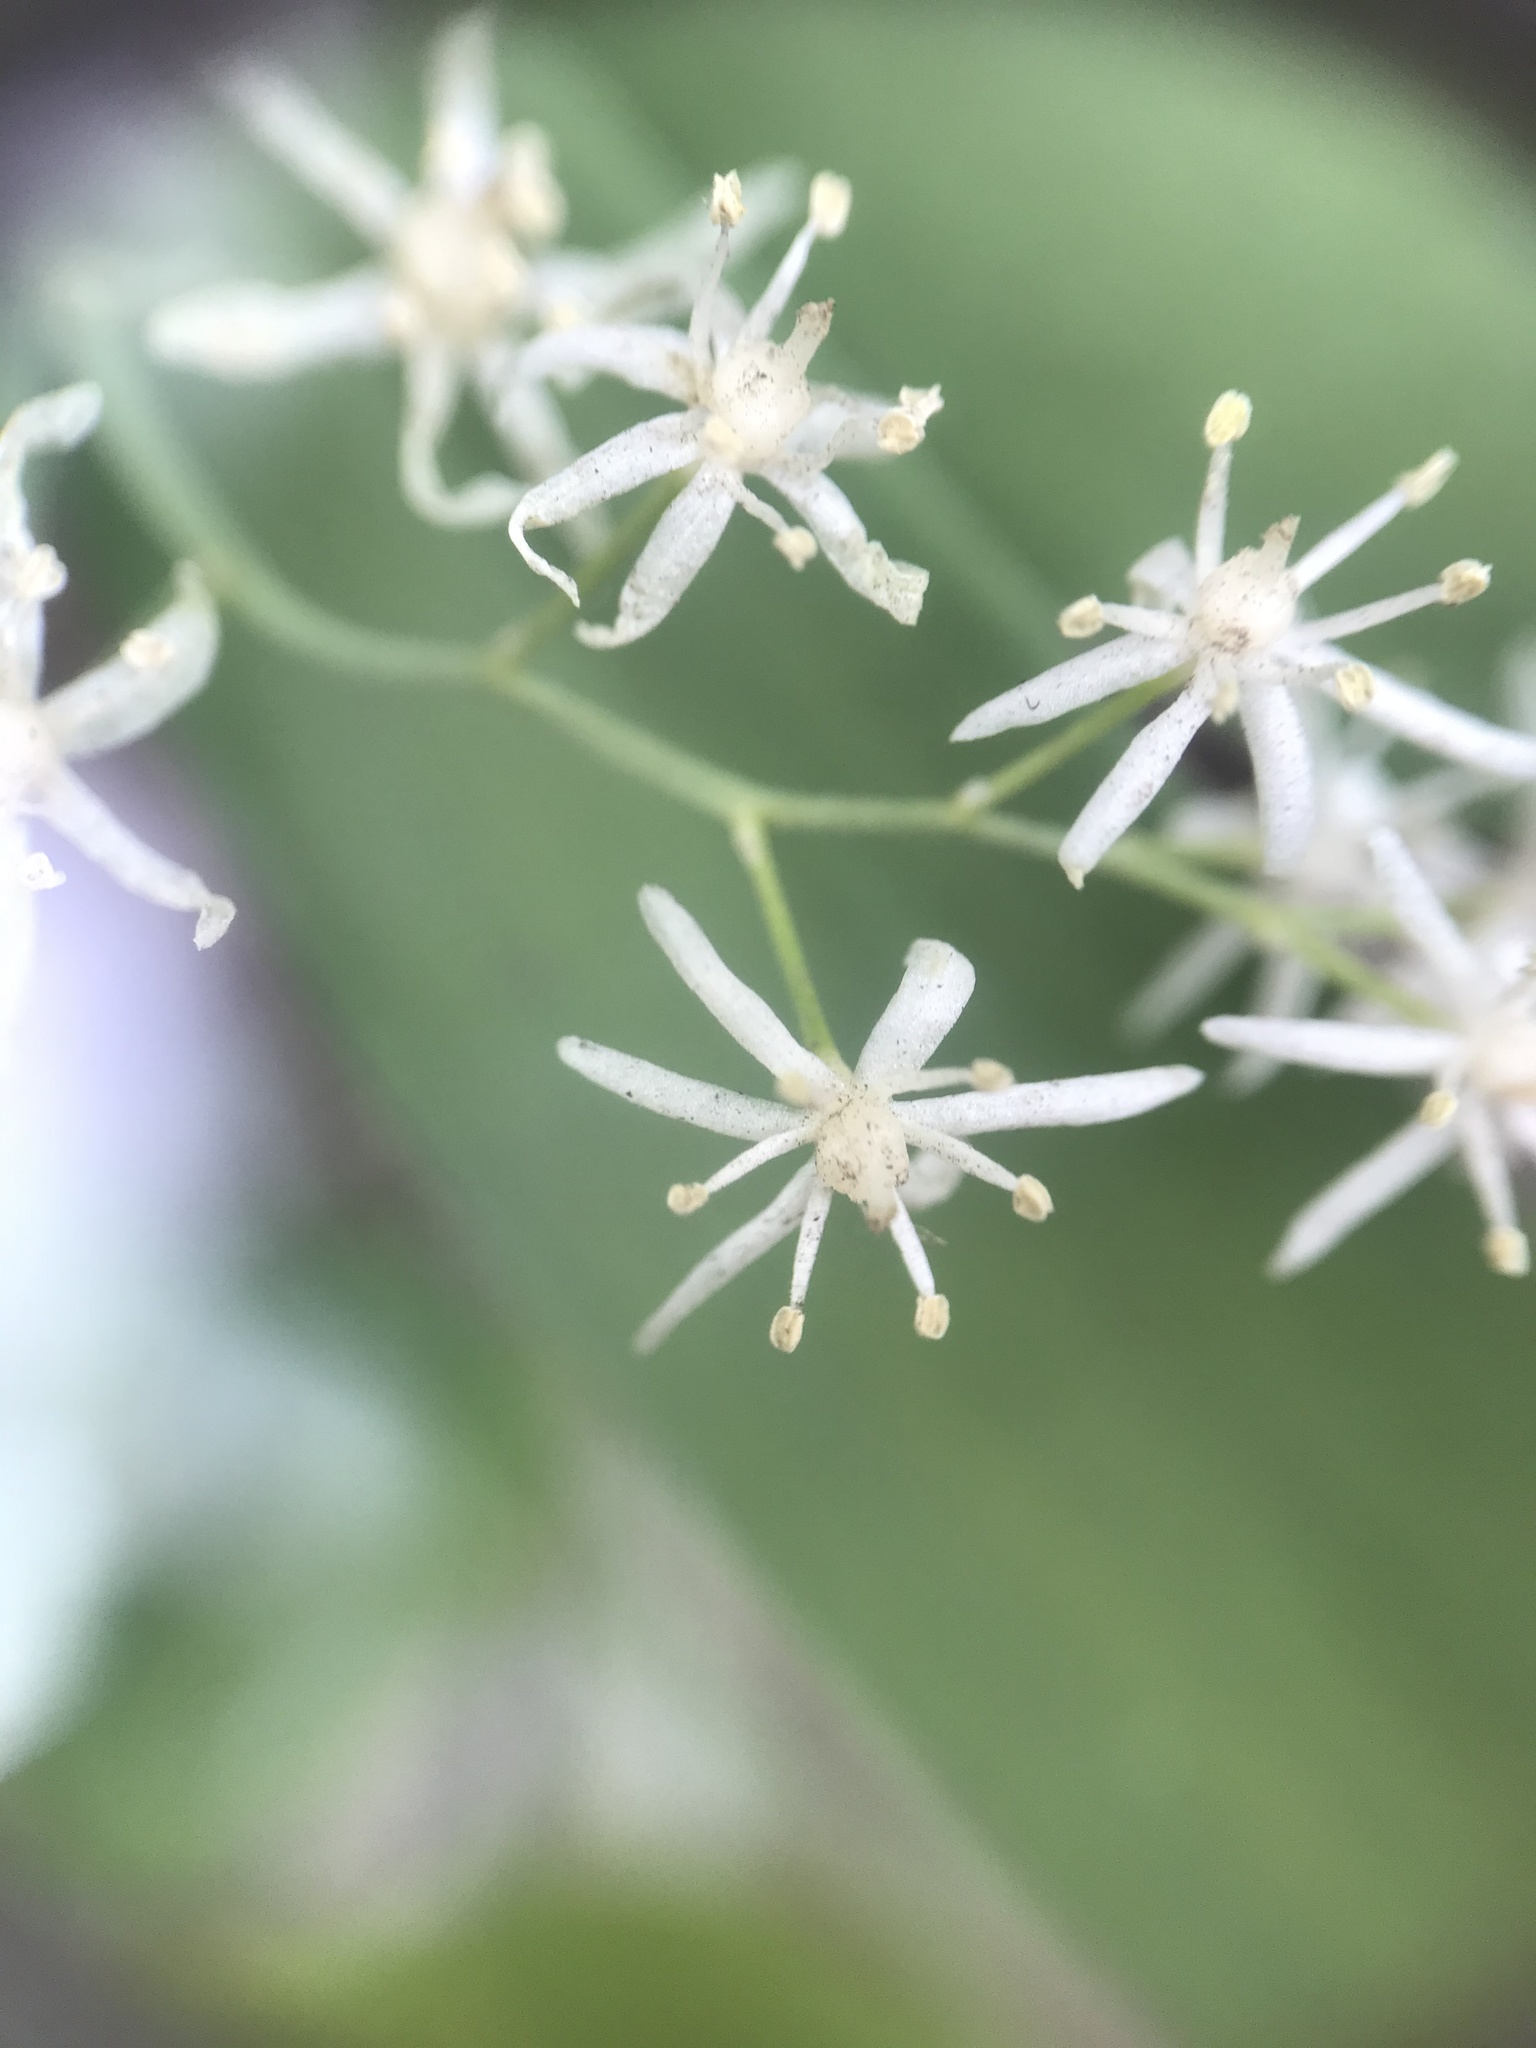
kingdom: Plantae
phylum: Tracheophyta
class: Liliopsida
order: Asparagales
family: Asparagaceae
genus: Maianthemum
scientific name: Maianthemum stellatum
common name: Little false solomon's seal
